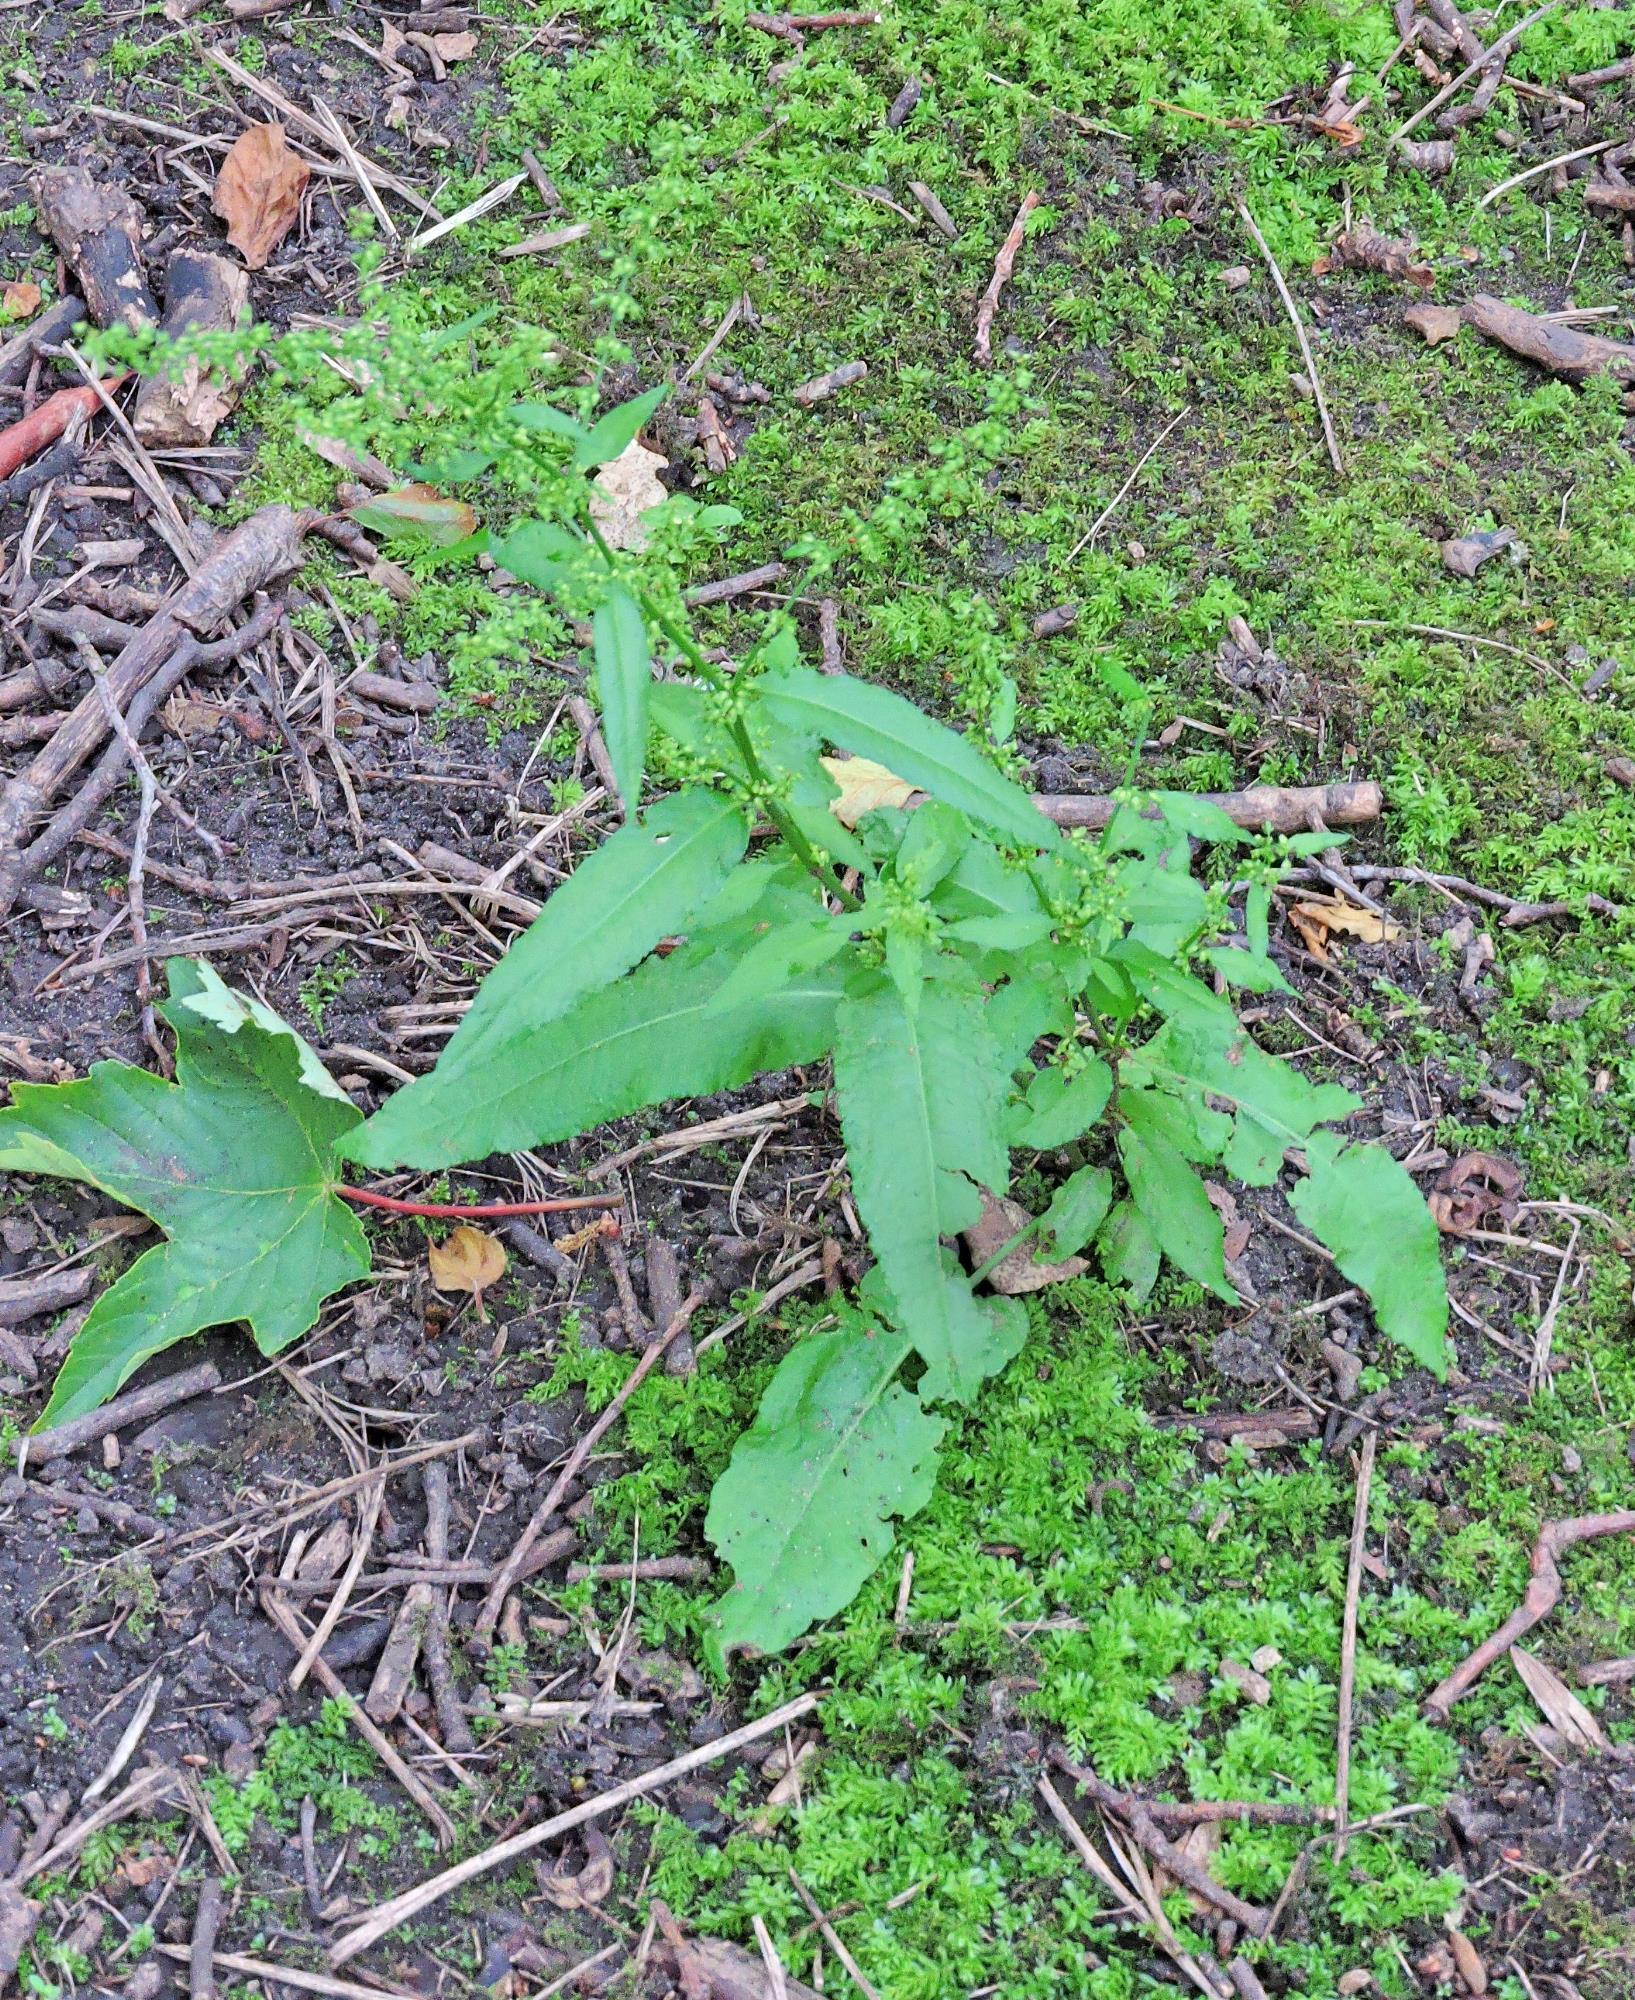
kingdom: Plantae
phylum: Tracheophyta
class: Magnoliopsida
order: Caryophyllales
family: Polygonaceae
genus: Rumex
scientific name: Rumex sanguineus
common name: Wood dock
